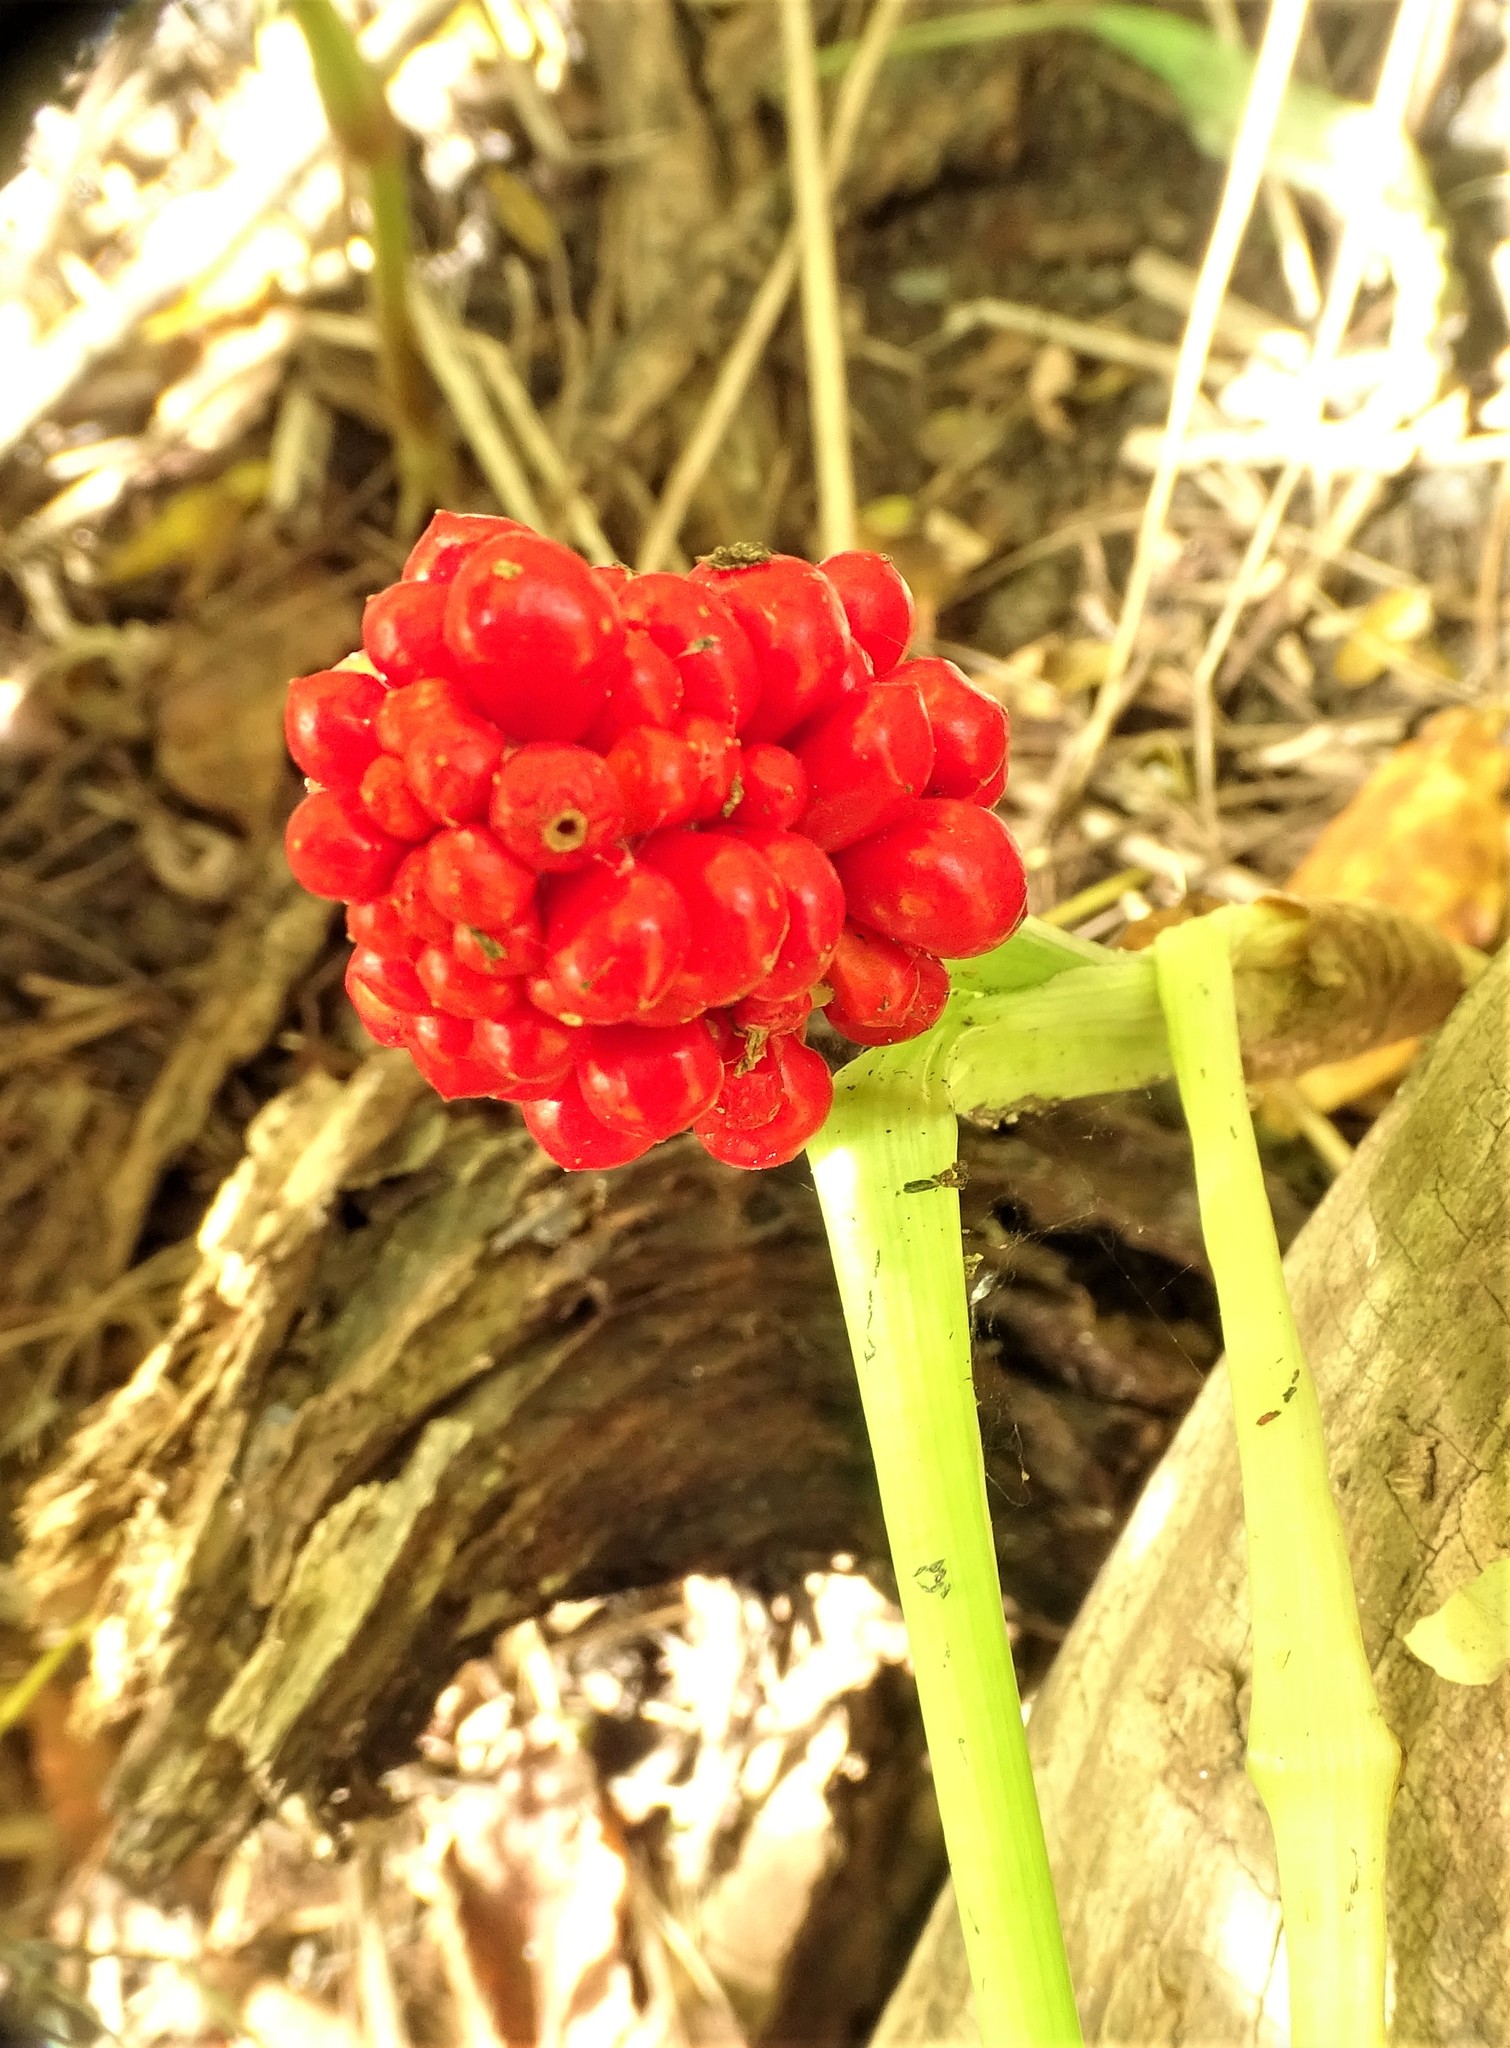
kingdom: Plantae
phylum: Tracheophyta
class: Liliopsida
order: Alismatales
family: Araceae
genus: Arisaema
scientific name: Arisaema triphyllum
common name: Jack-in-the-pulpit
